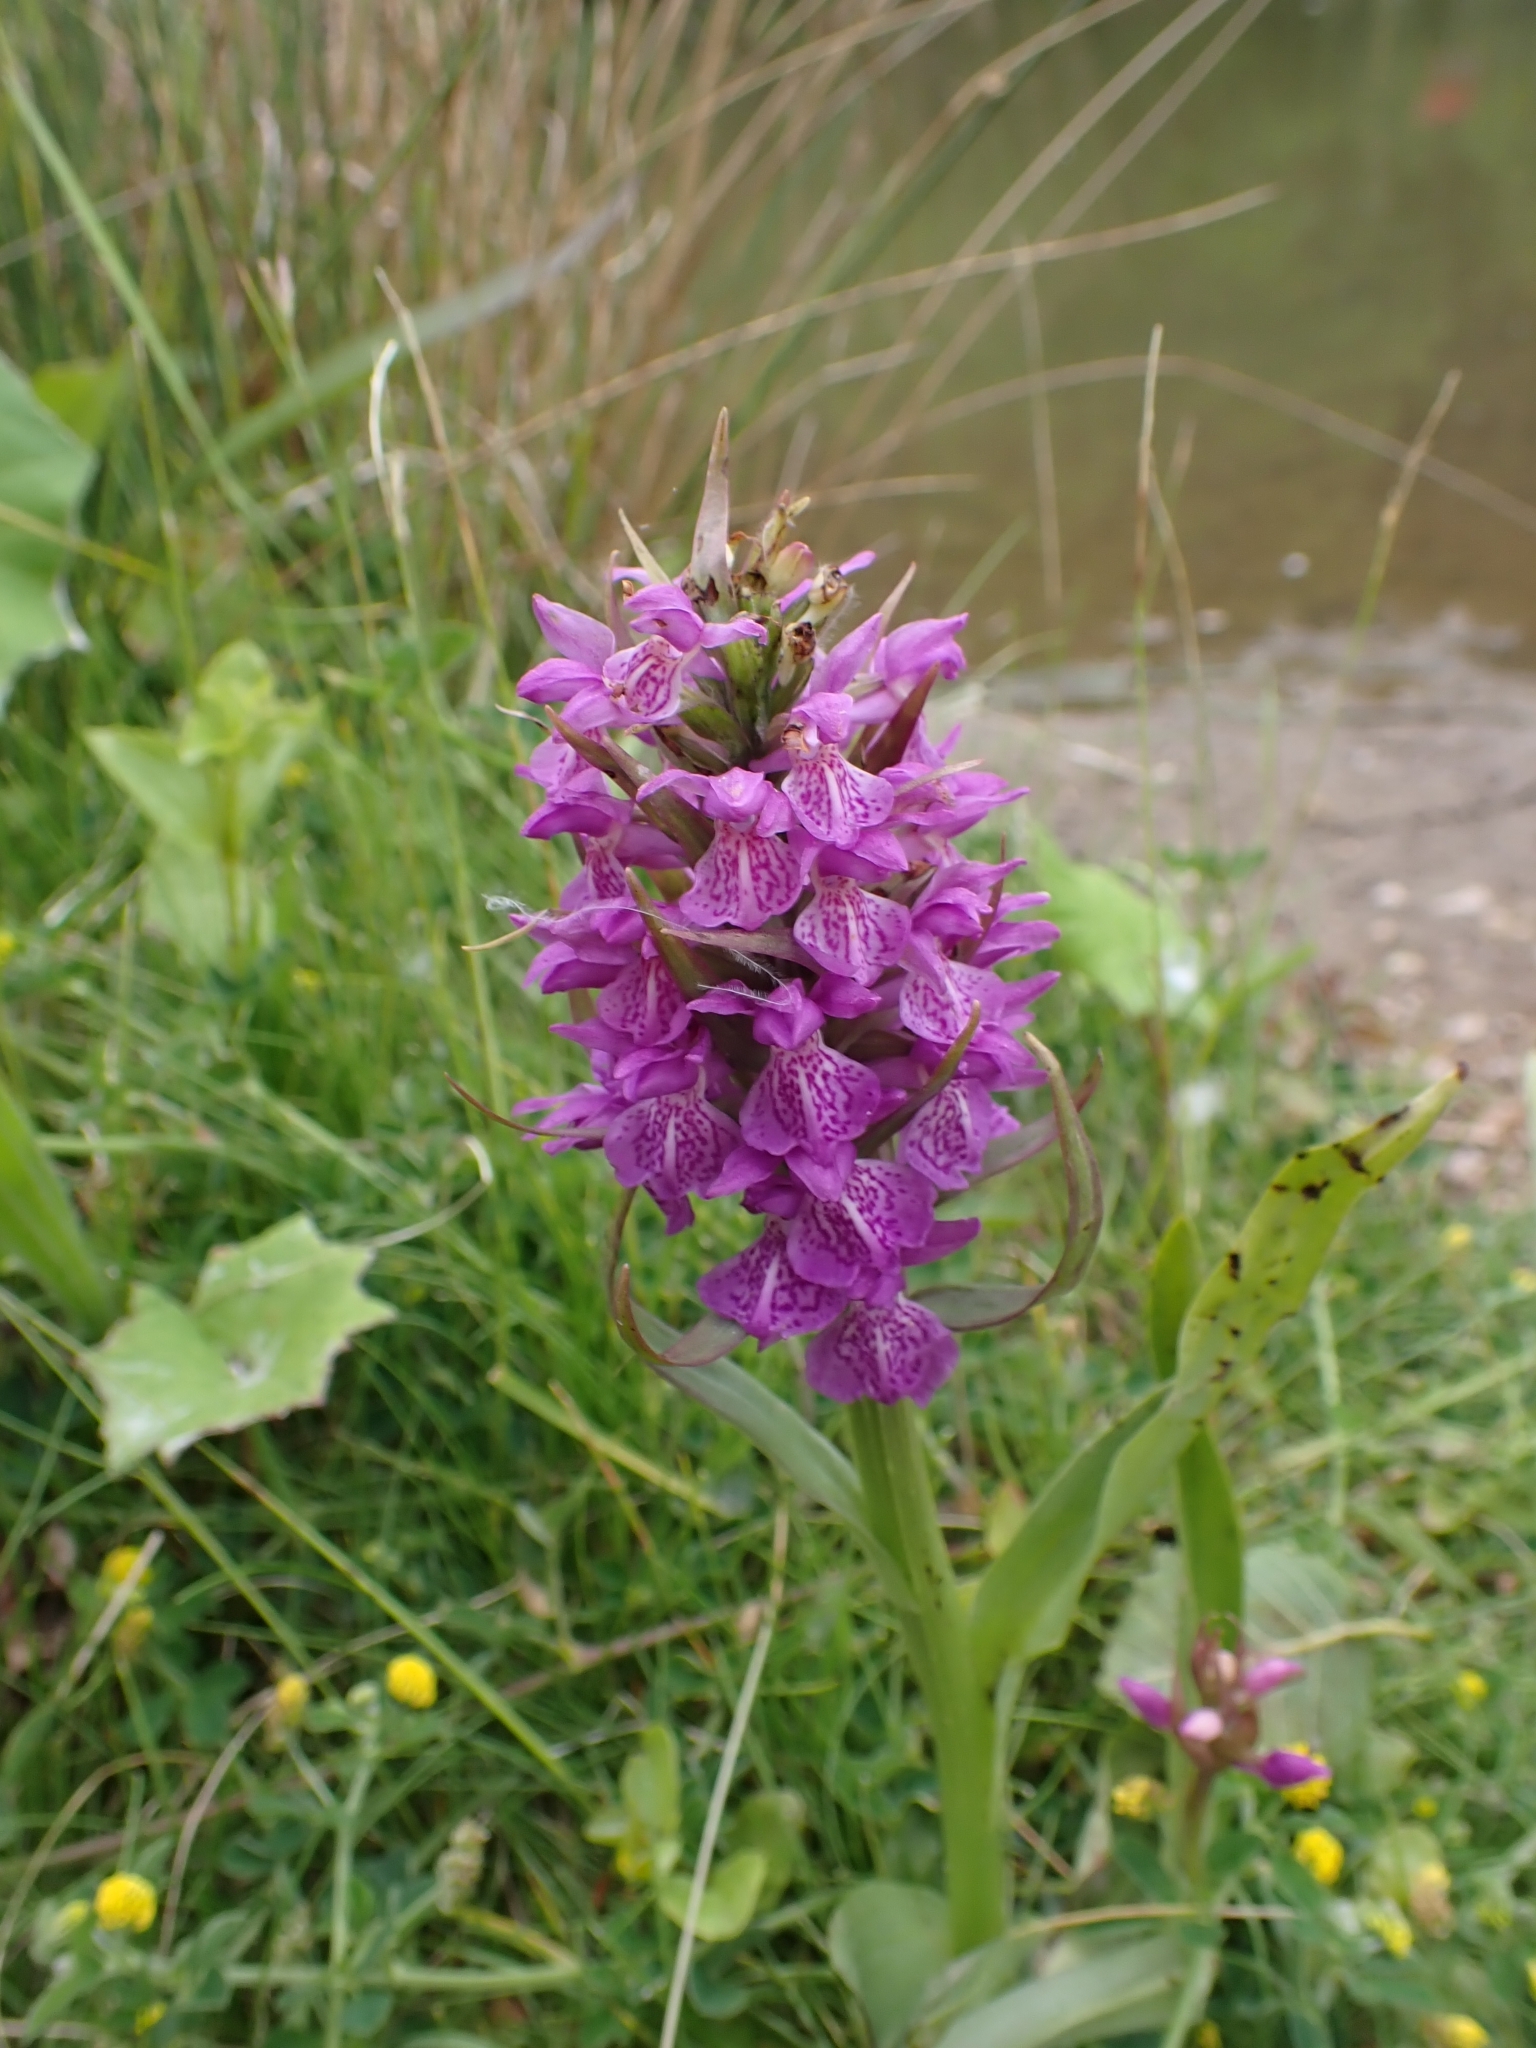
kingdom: Plantae
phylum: Tracheophyta
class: Liliopsida
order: Asparagales
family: Orchidaceae
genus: Dactylorhiza
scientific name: Dactylorhiza majalis
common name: Marsh orchid
